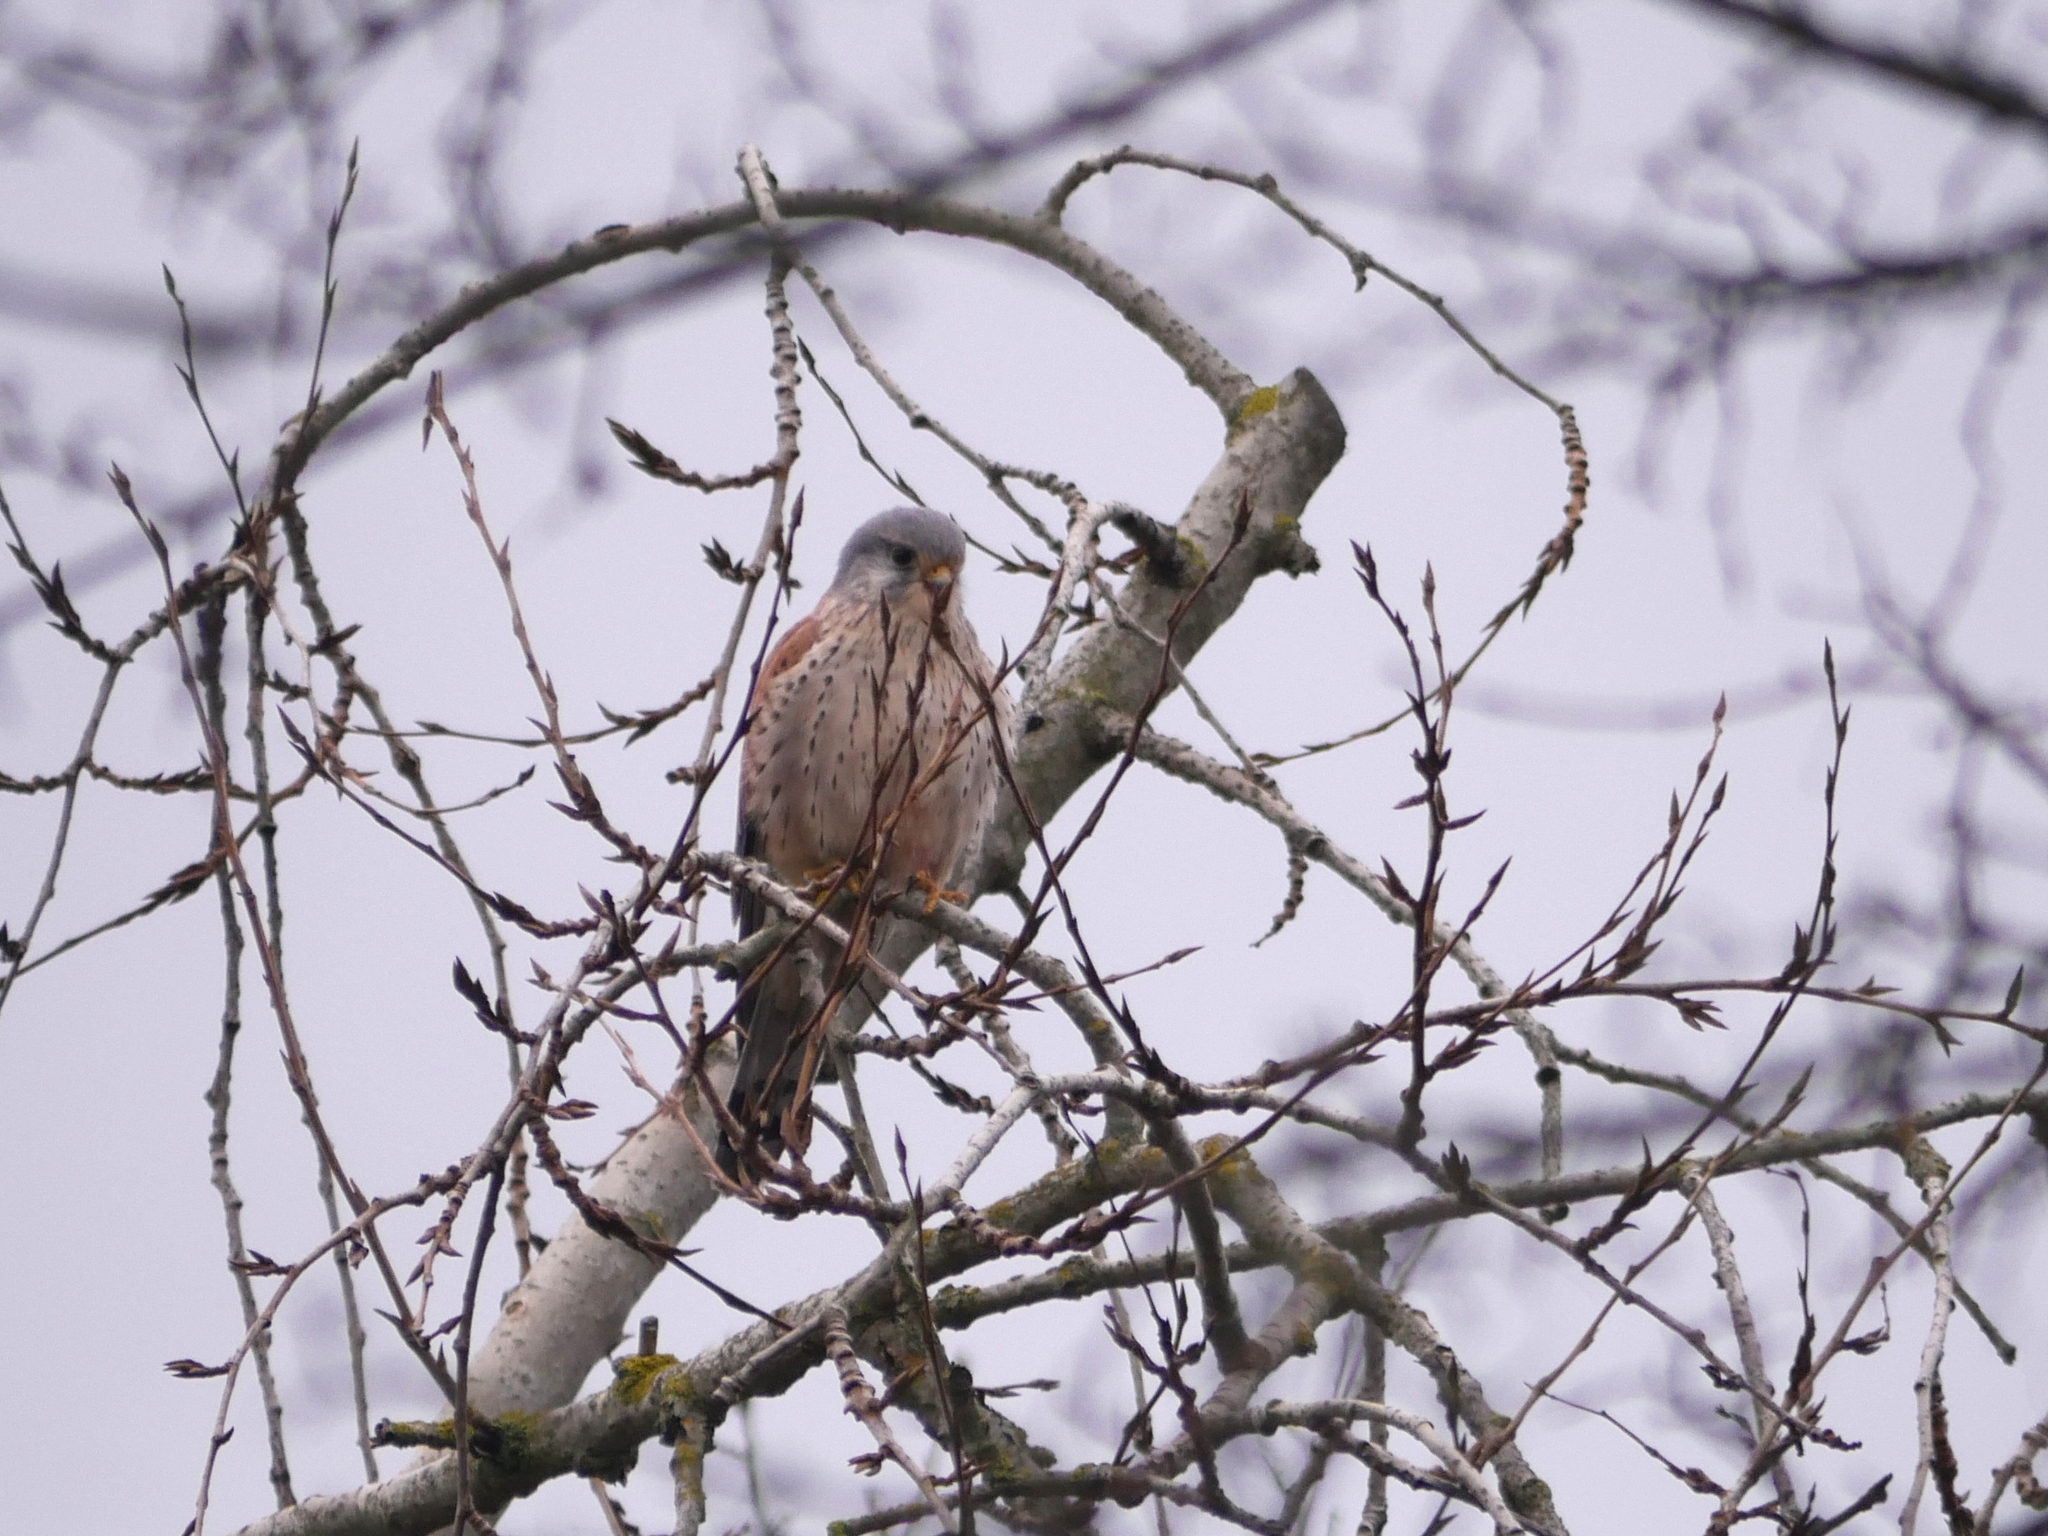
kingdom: Animalia
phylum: Chordata
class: Aves
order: Falconiformes
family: Falconidae
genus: Falco
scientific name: Falco tinnunculus
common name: Common kestrel
